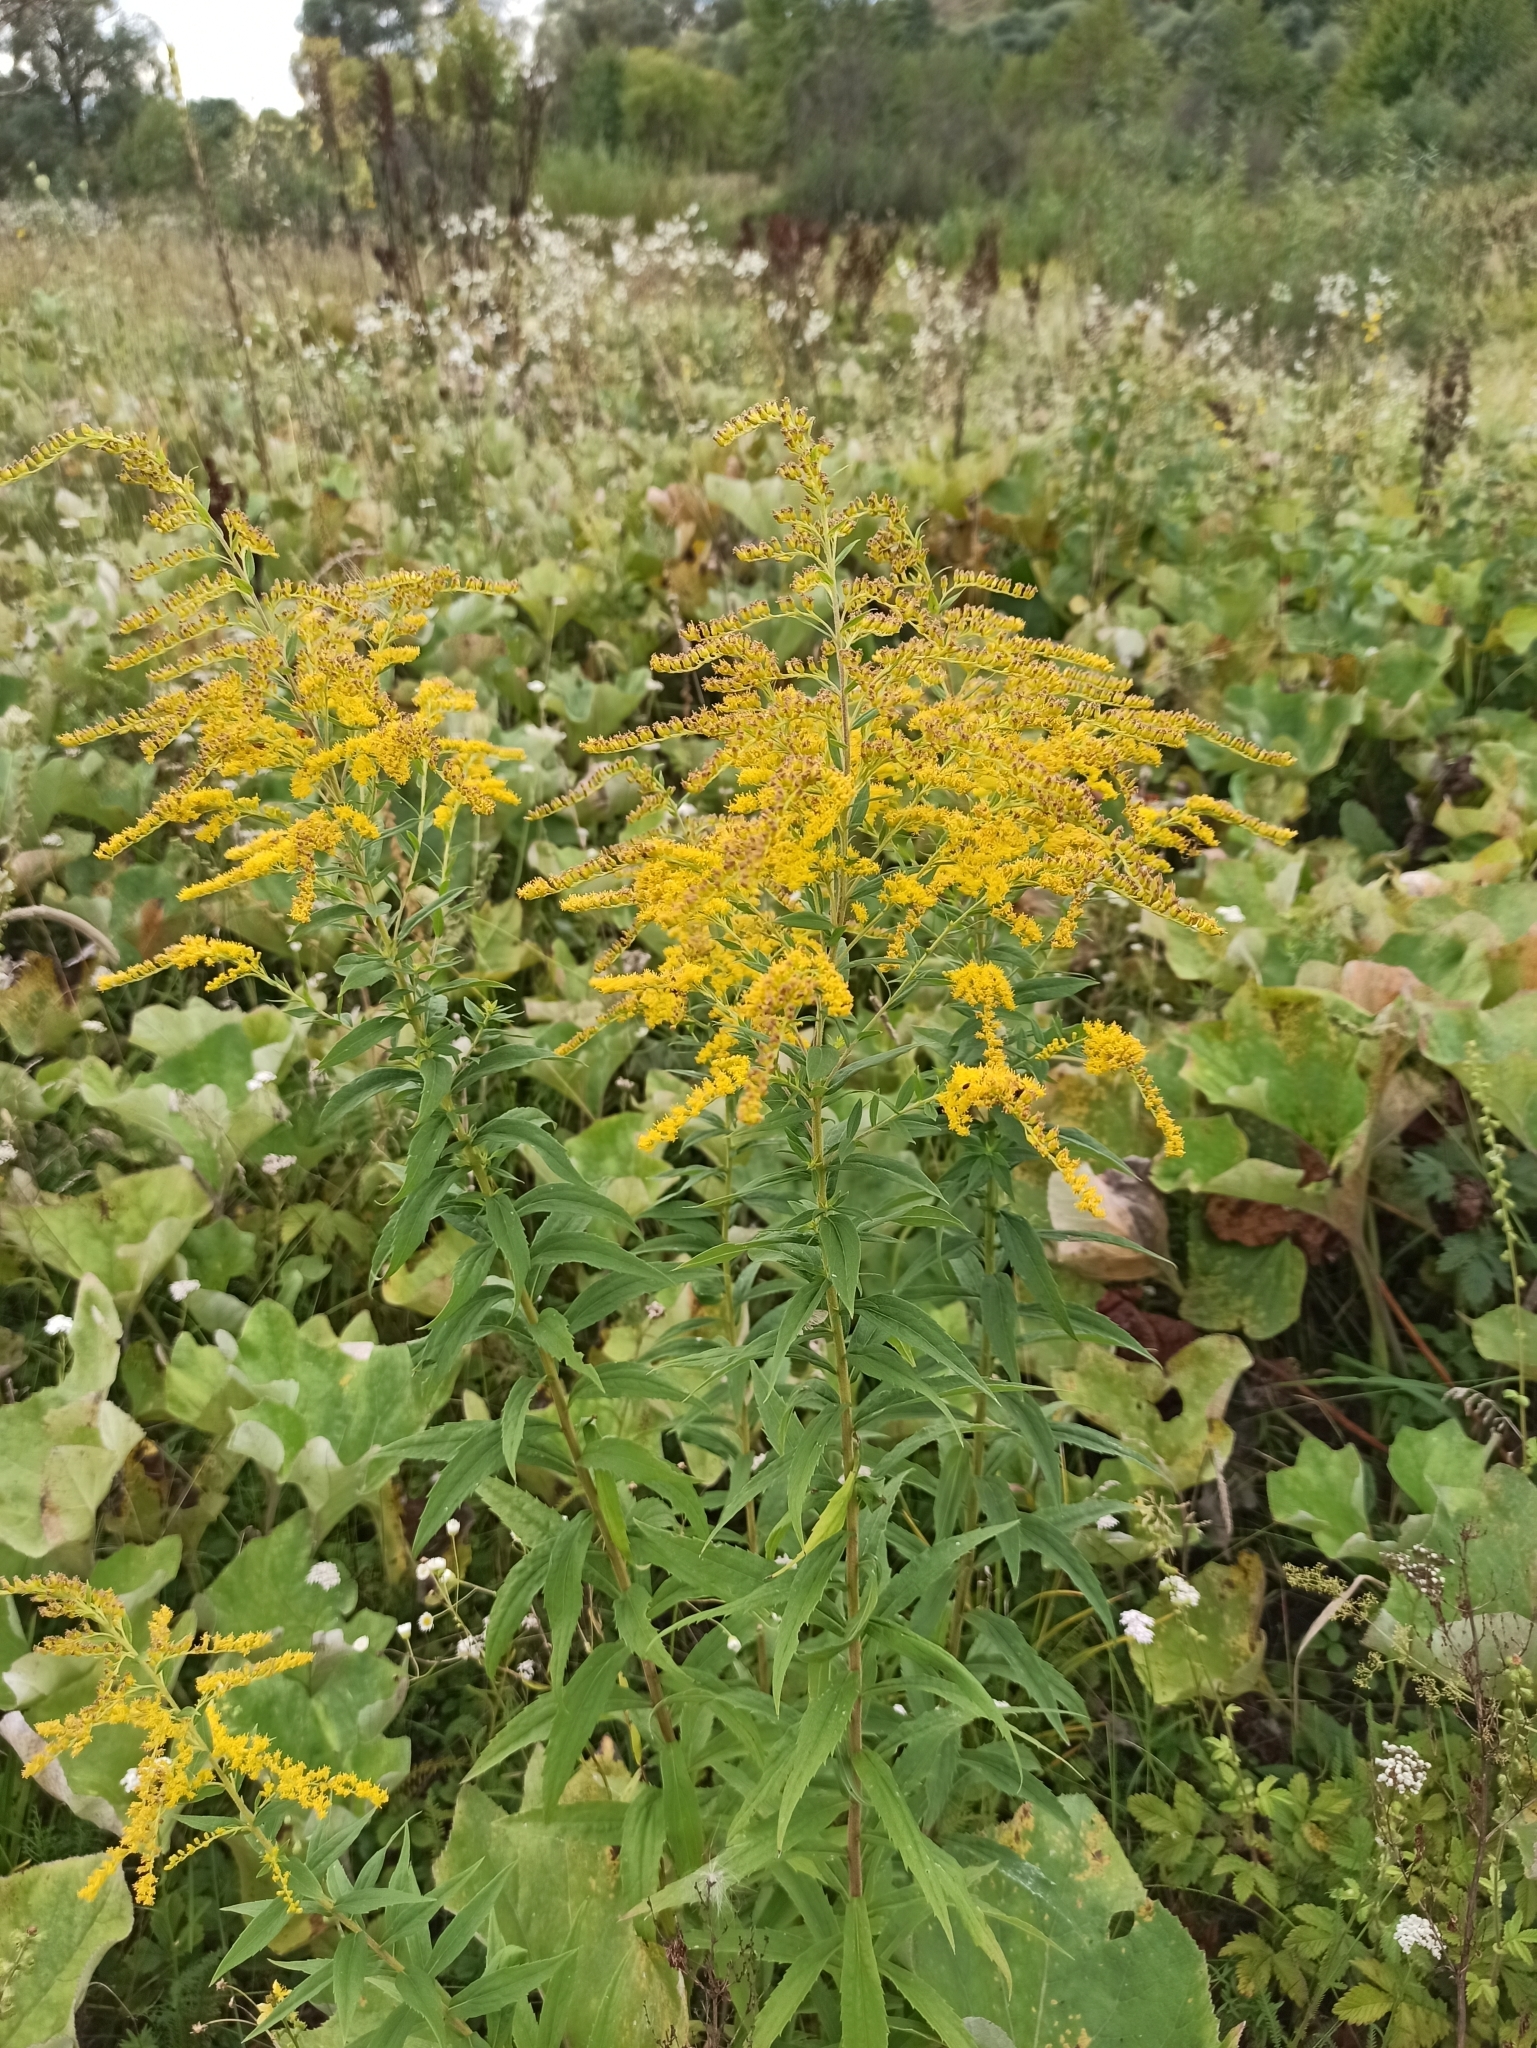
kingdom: Plantae
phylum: Tracheophyta
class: Magnoliopsida
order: Asterales
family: Asteraceae
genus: Solidago
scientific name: Solidago canadensis
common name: Canada goldenrod
